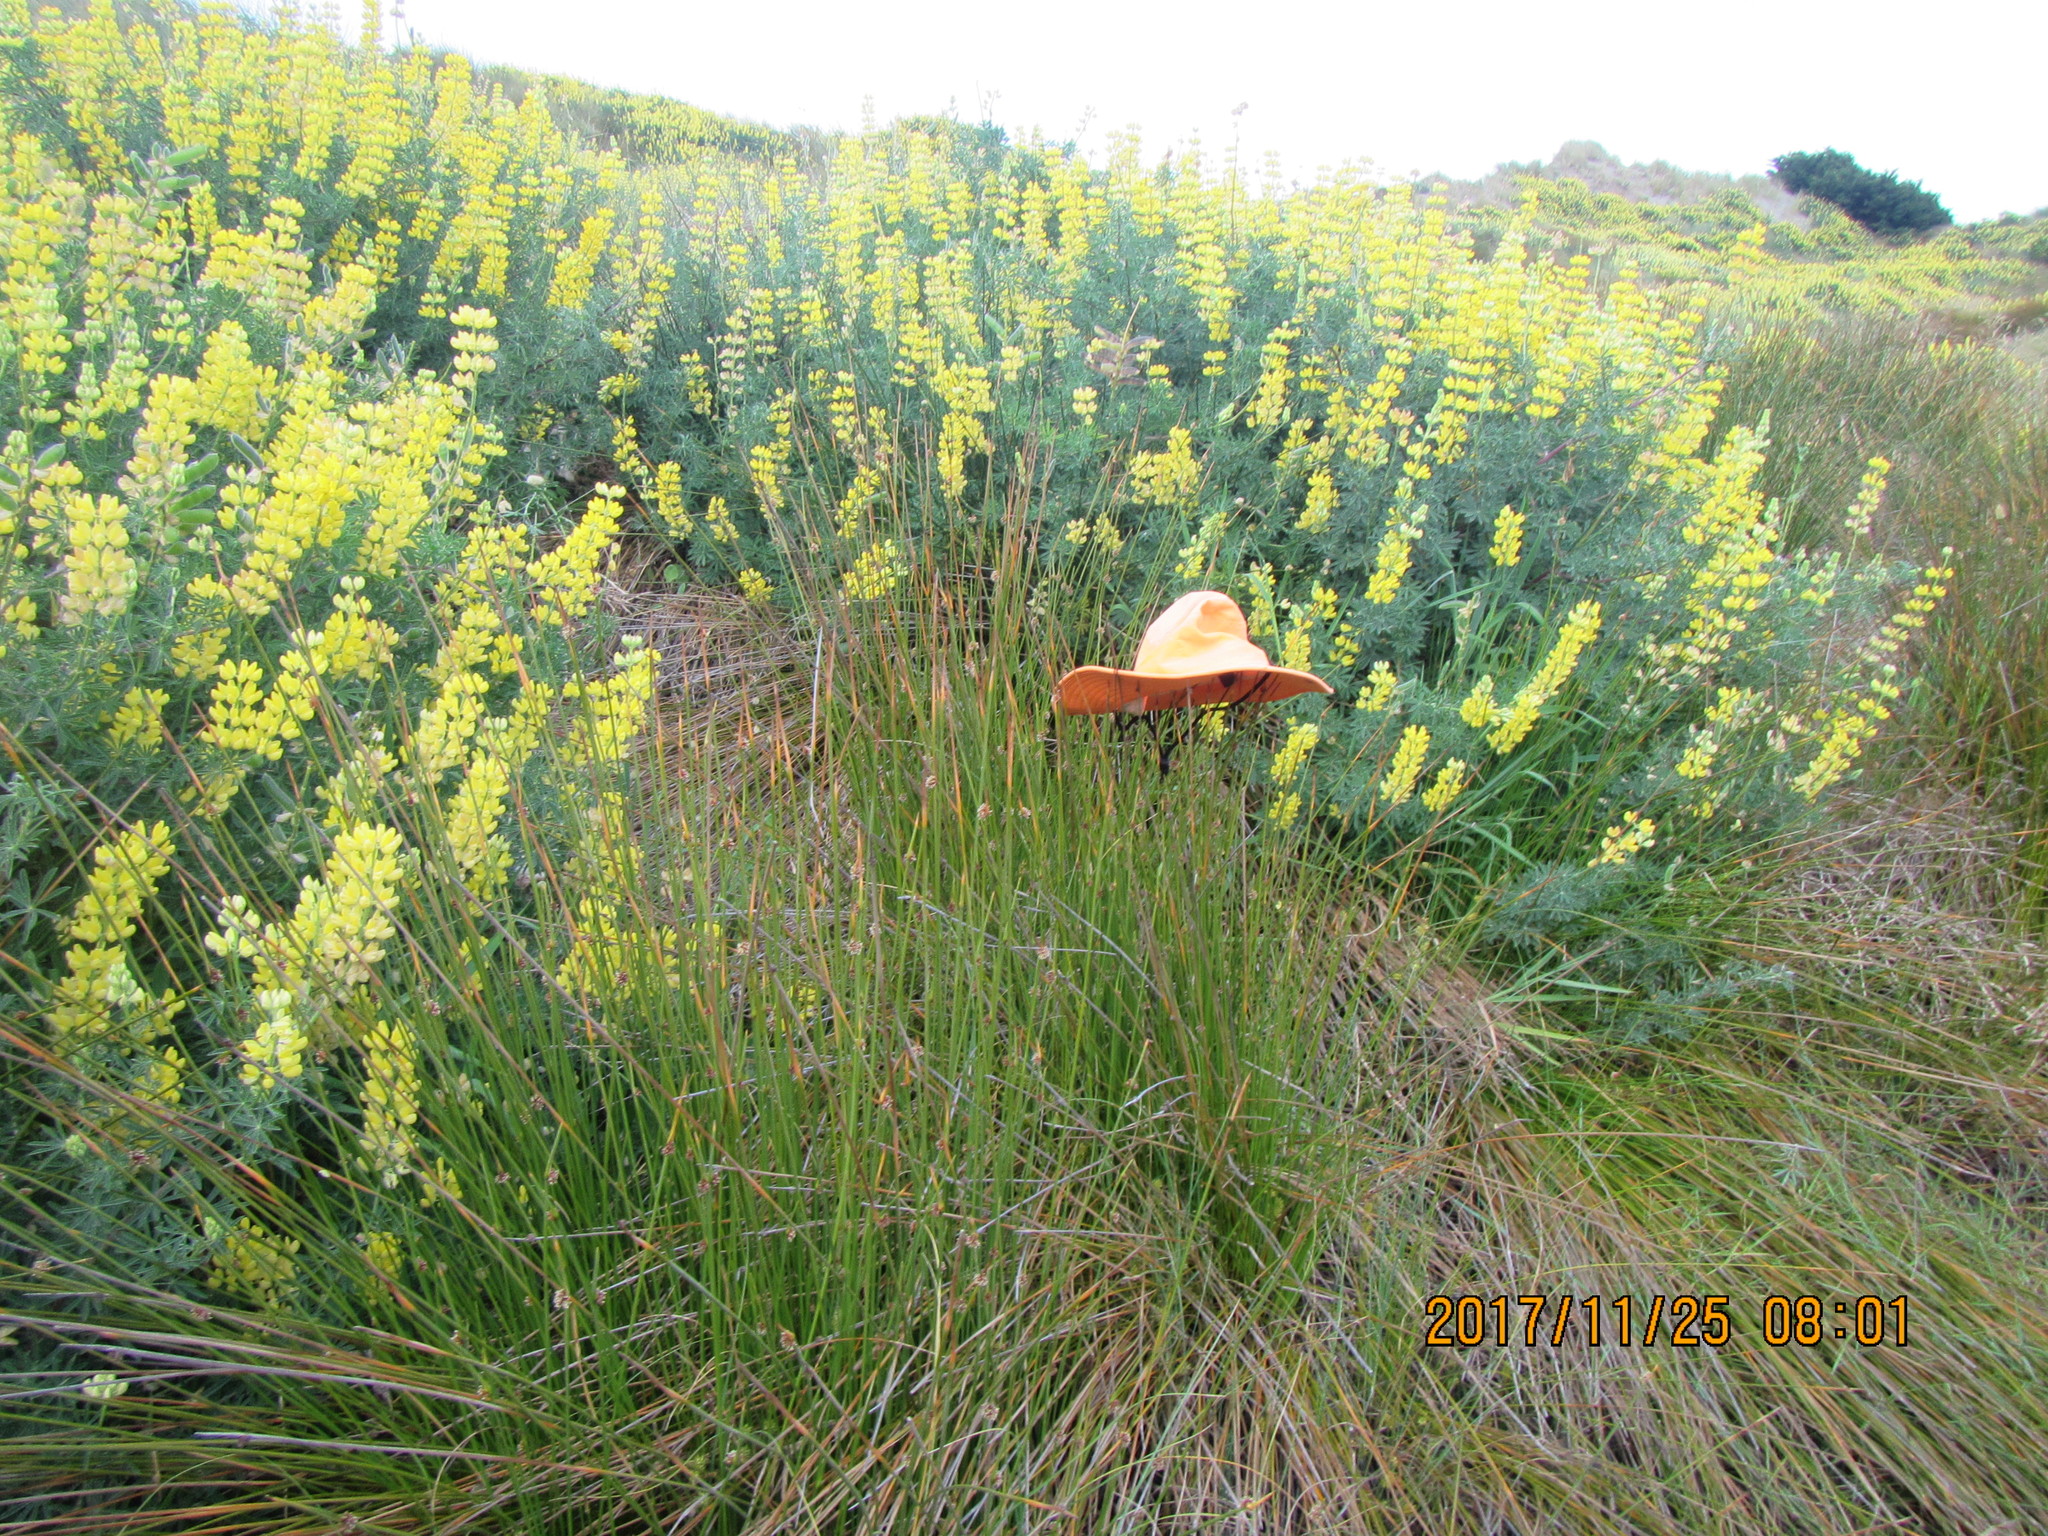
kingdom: Plantae
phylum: Tracheophyta
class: Liliopsida
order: Poales
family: Cyperaceae
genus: Ficinia
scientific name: Ficinia nodosa
